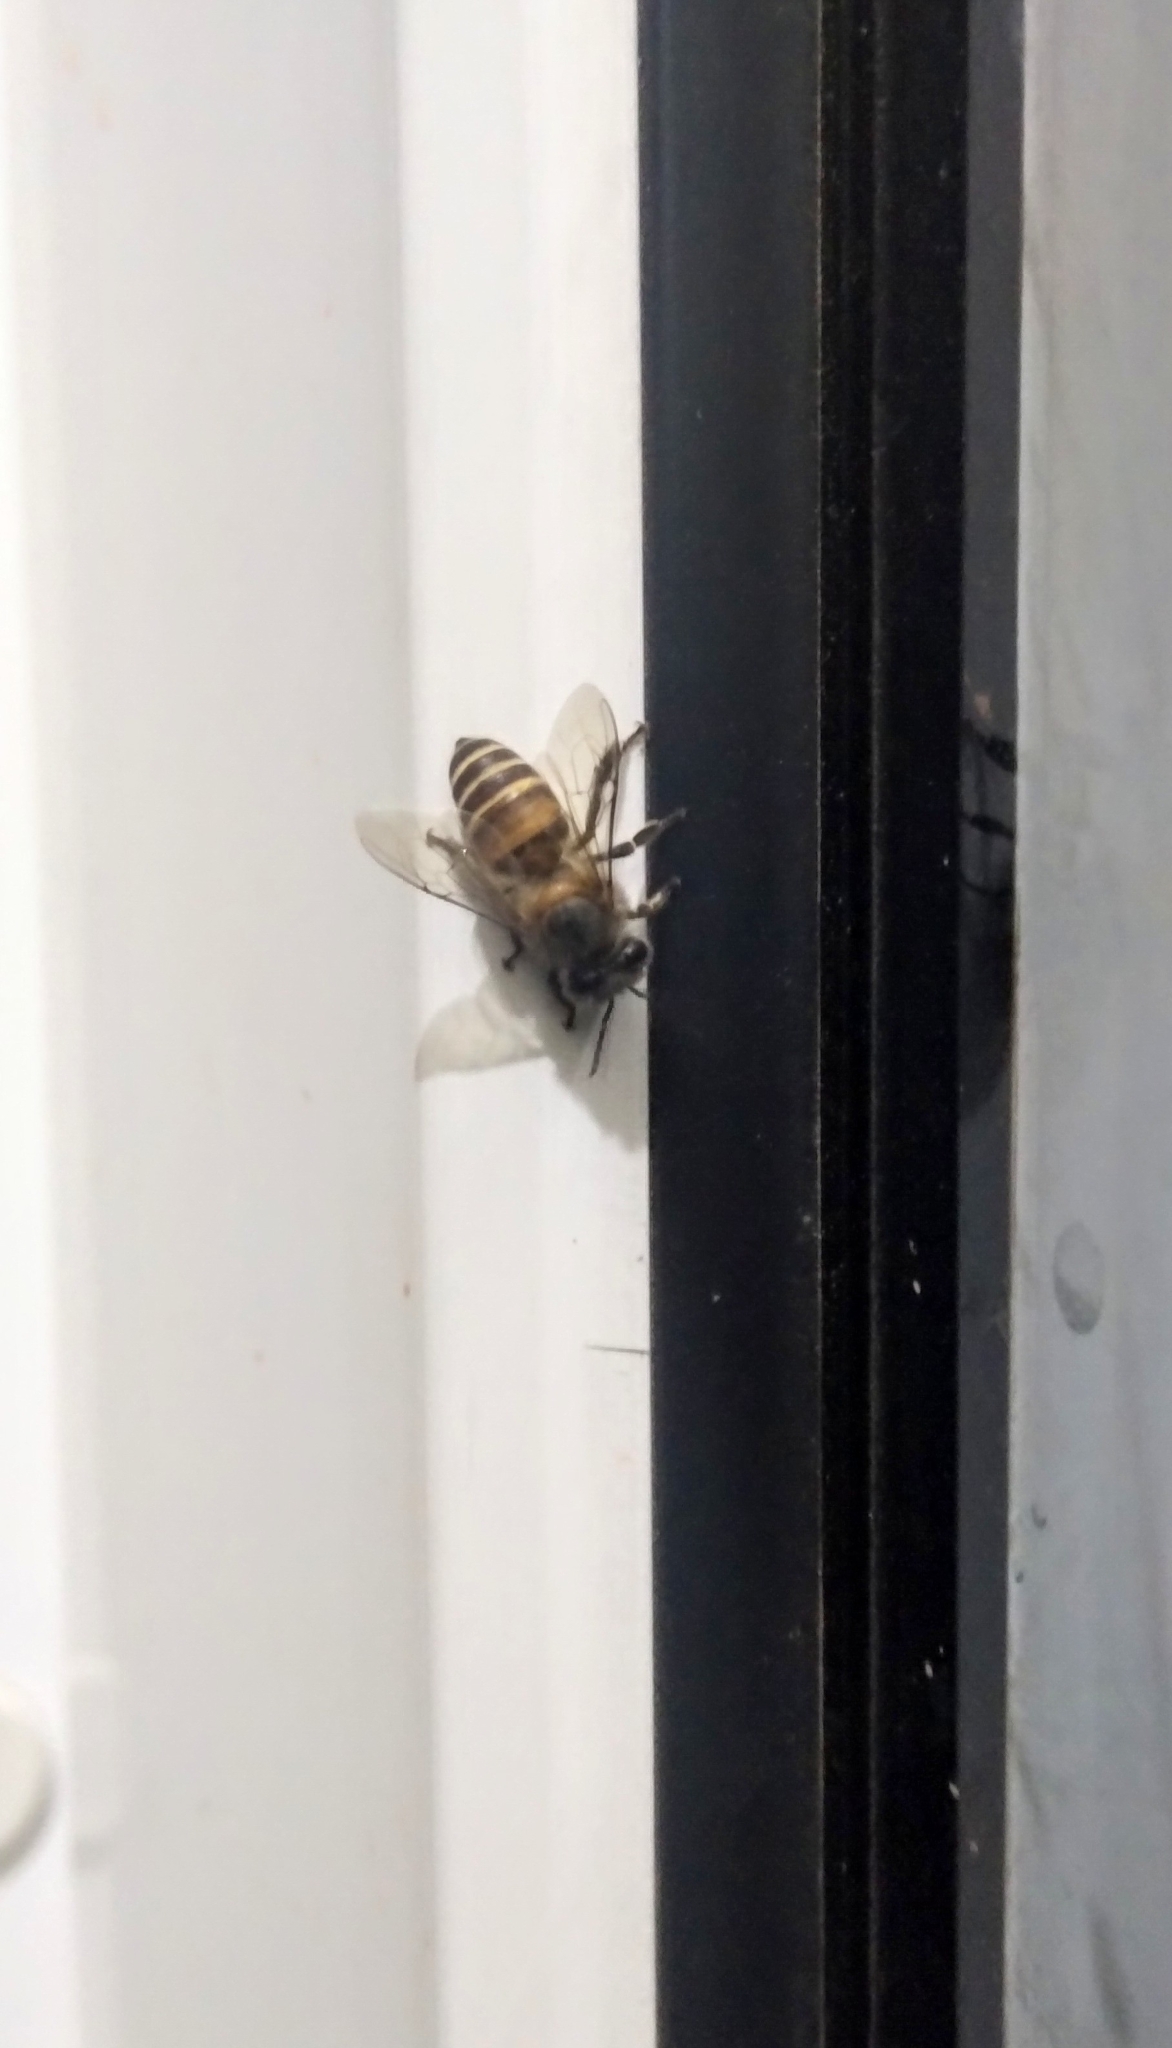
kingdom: Animalia
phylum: Arthropoda
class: Insecta
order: Hymenoptera
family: Apidae
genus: Apis
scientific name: Apis cerana
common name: Honey bee
